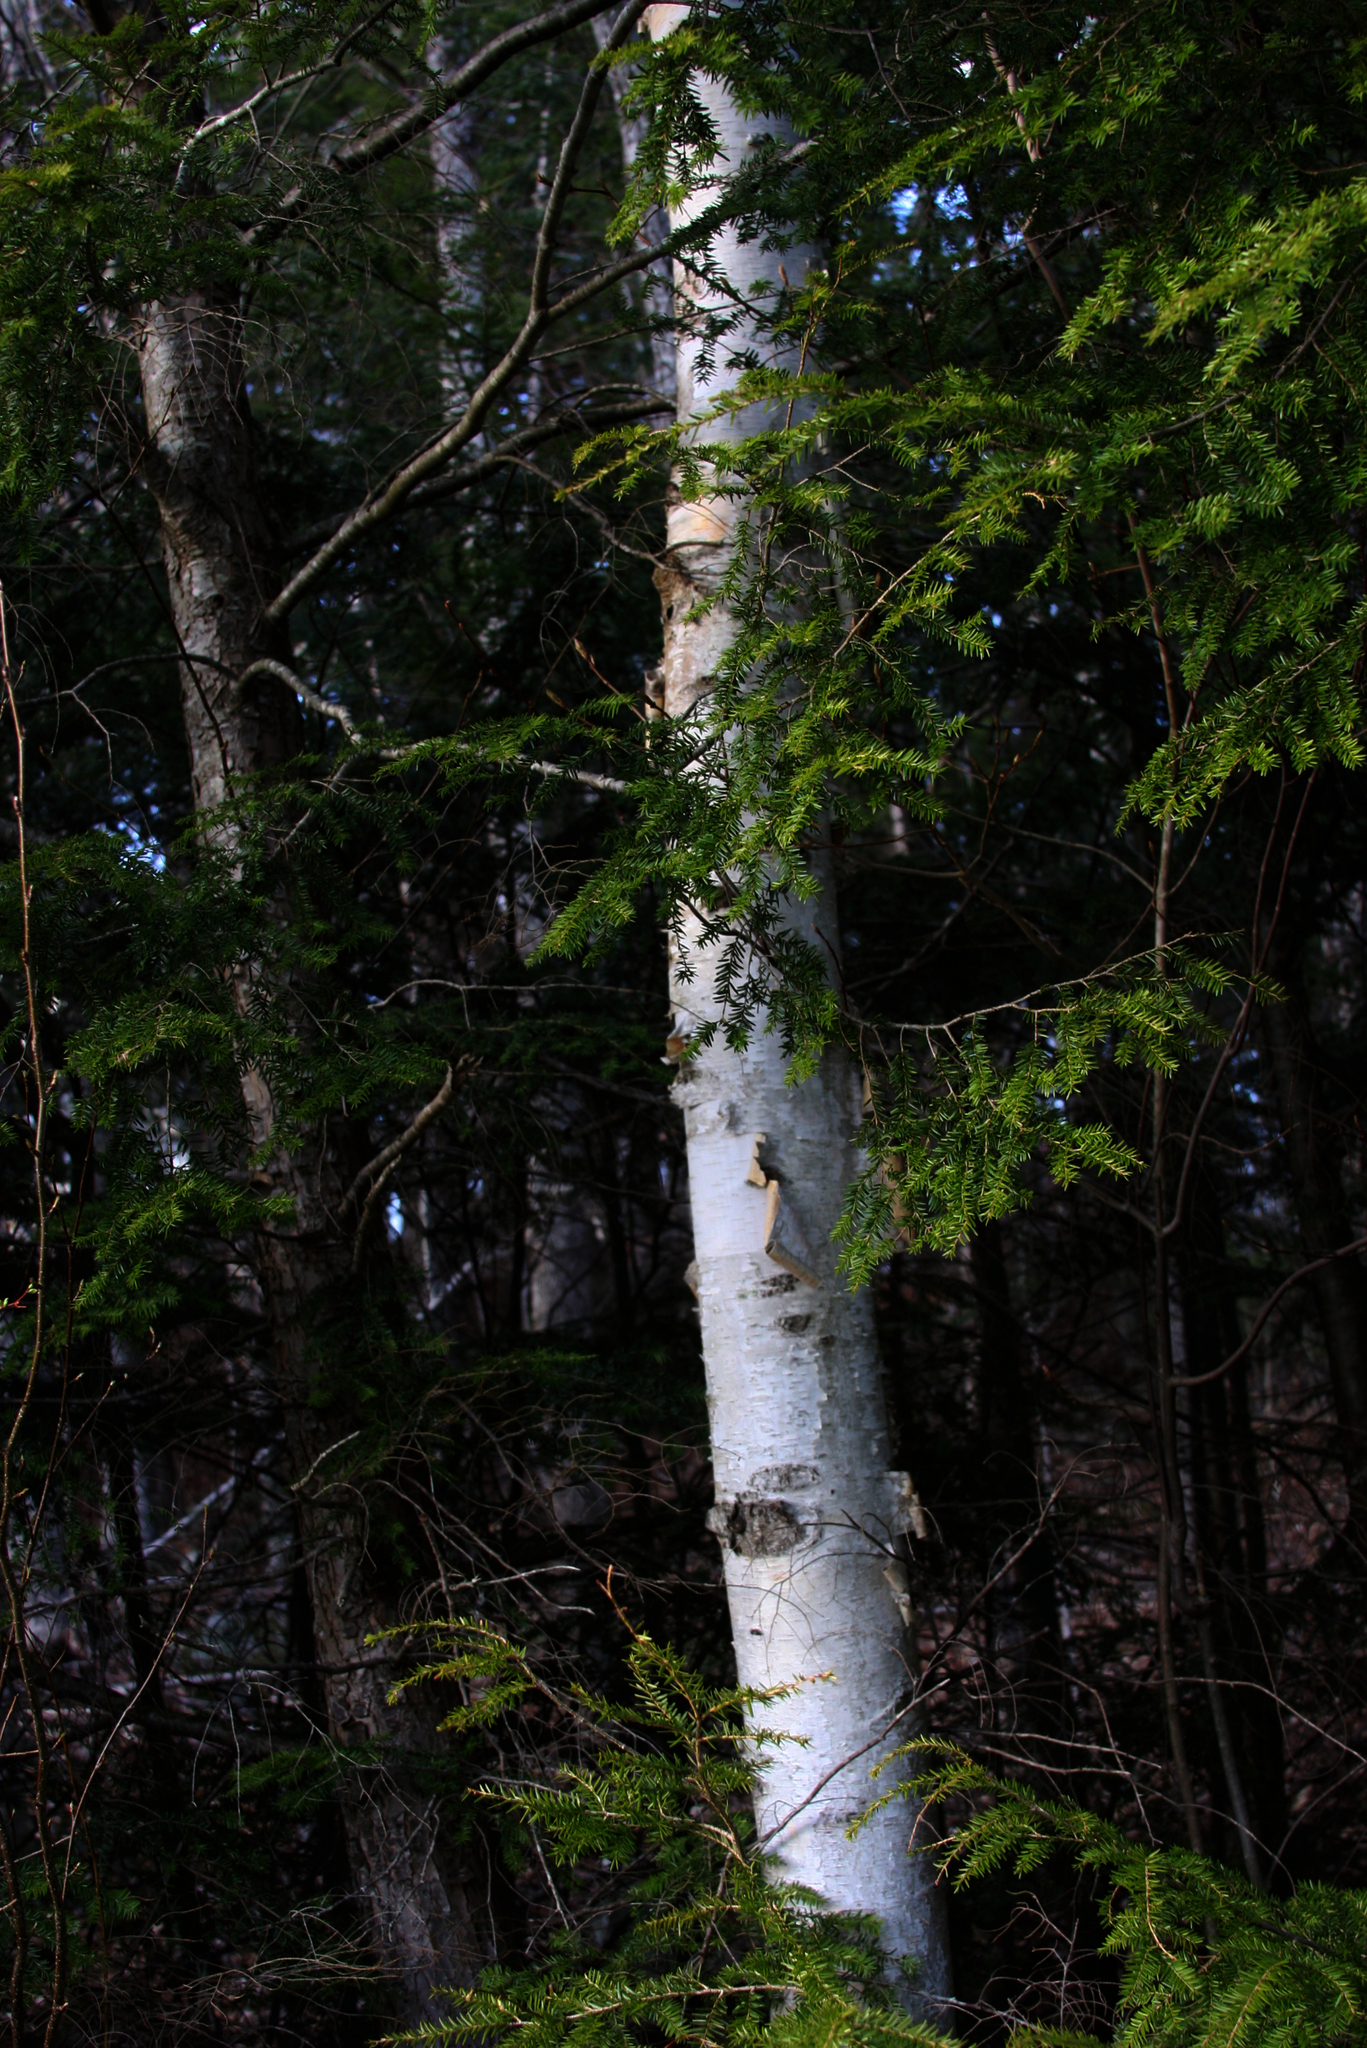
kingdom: Plantae
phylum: Tracheophyta
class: Pinopsida
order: Pinales
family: Pinaceae
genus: Tsuga
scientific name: Tsuga canadensis
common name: Eastern hemlock
